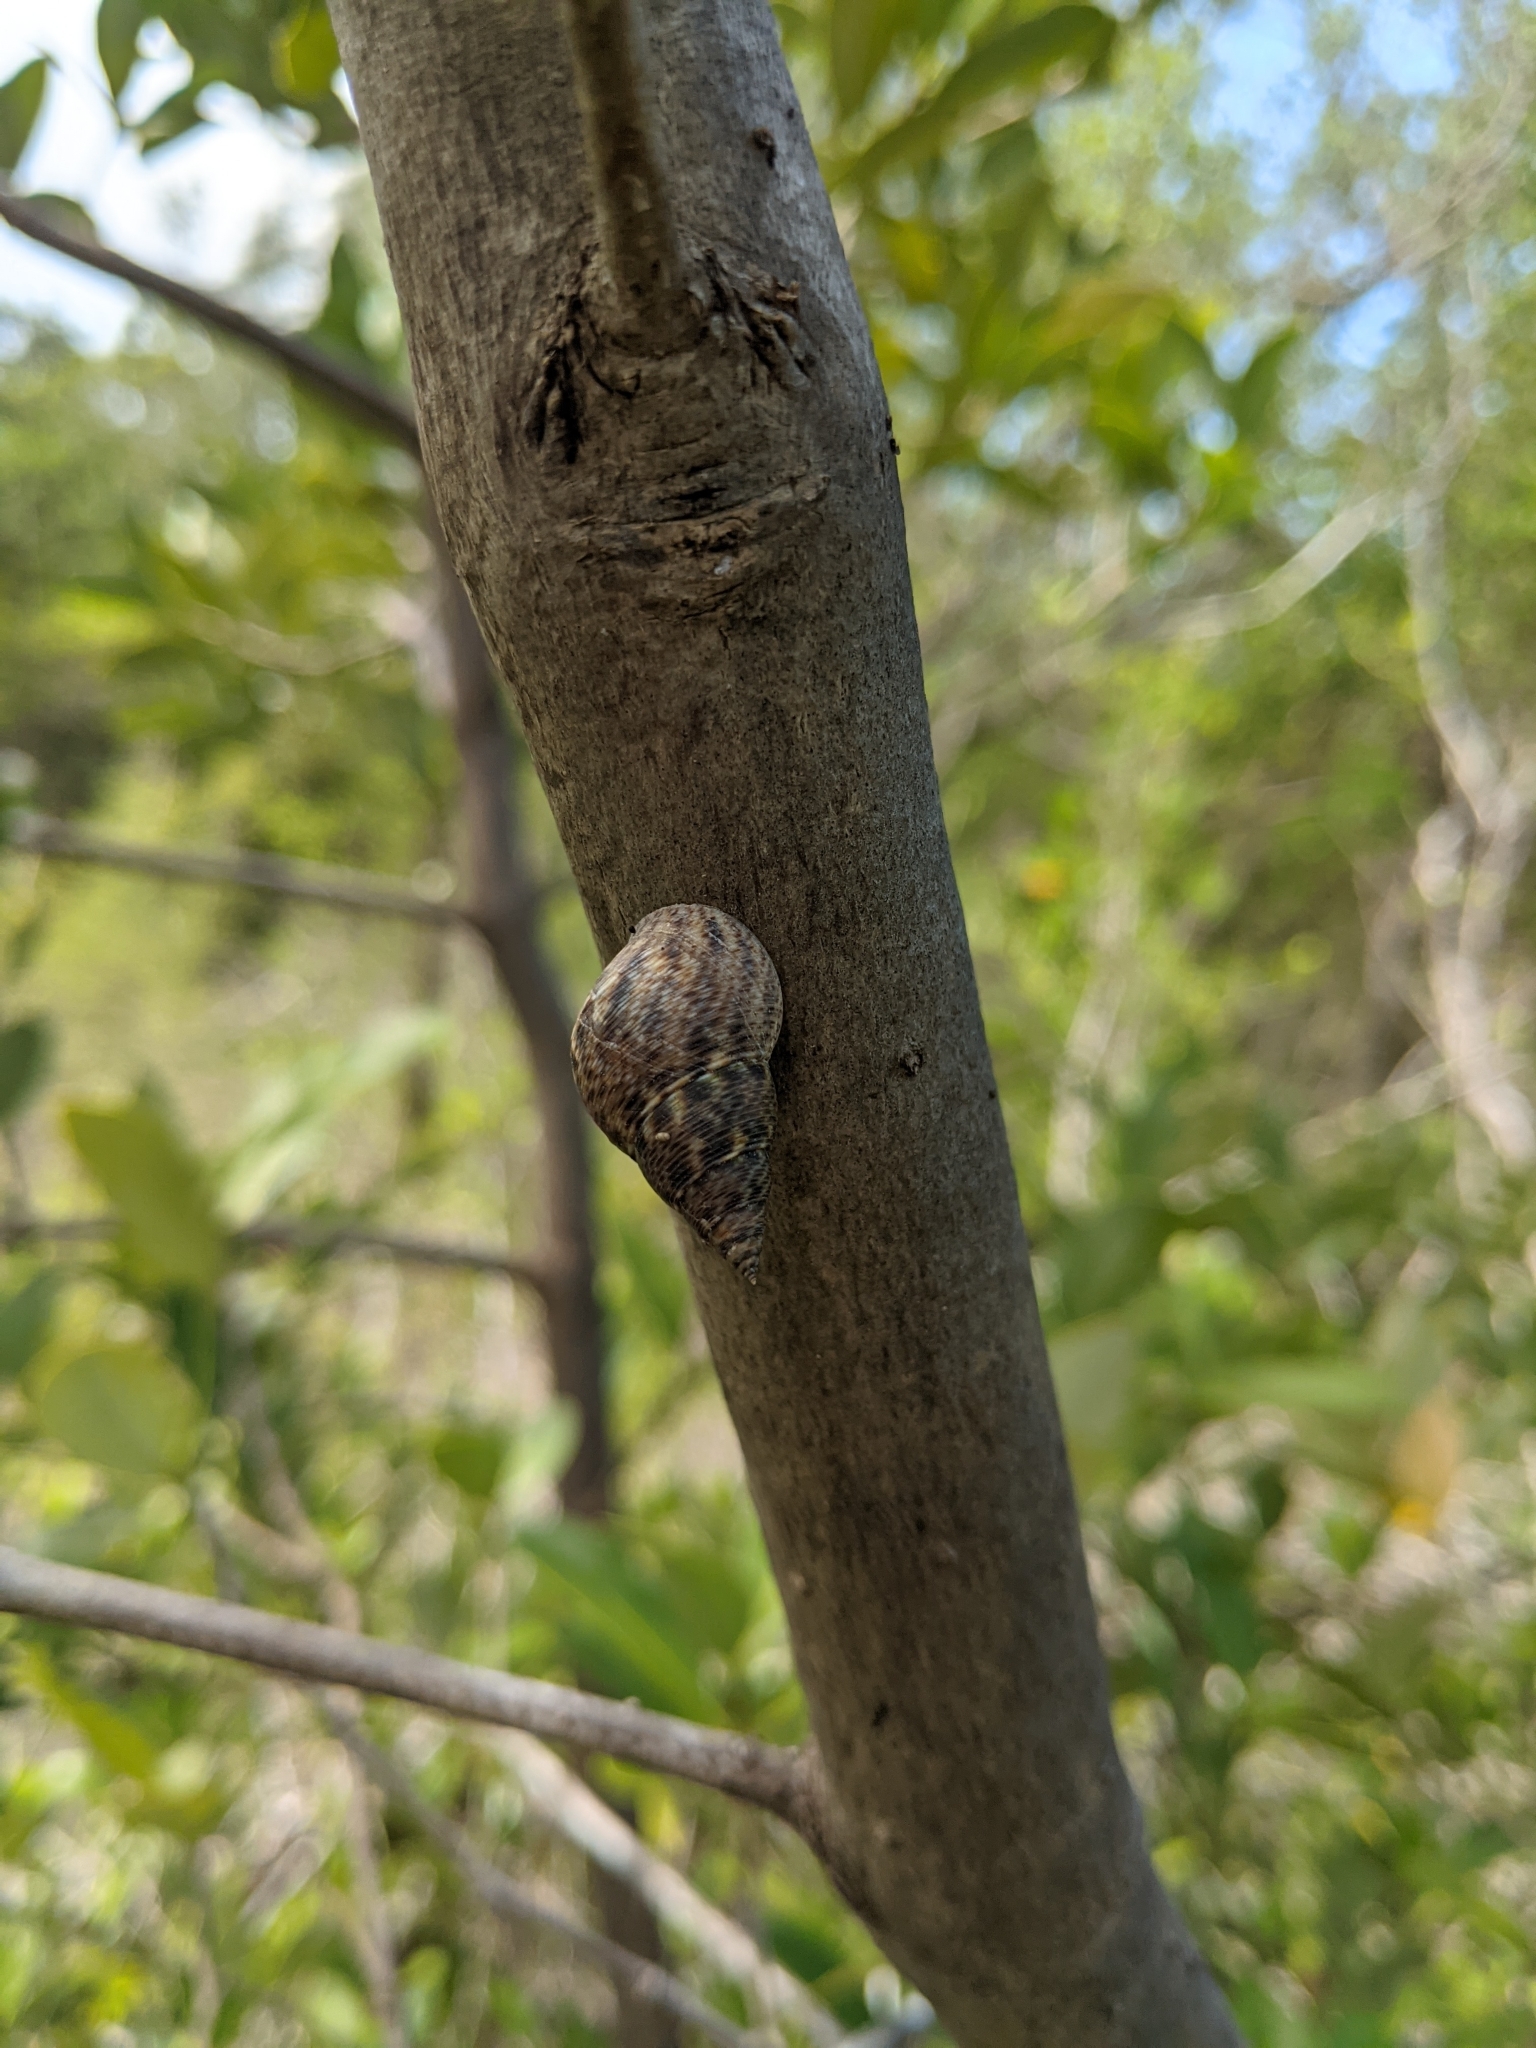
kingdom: Animalia
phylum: Mollusca
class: Gastropoda
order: Littorinimorpha
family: Littorinidae
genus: Littoraria
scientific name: Littoraria angulifera
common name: Mangrove periwinkle
